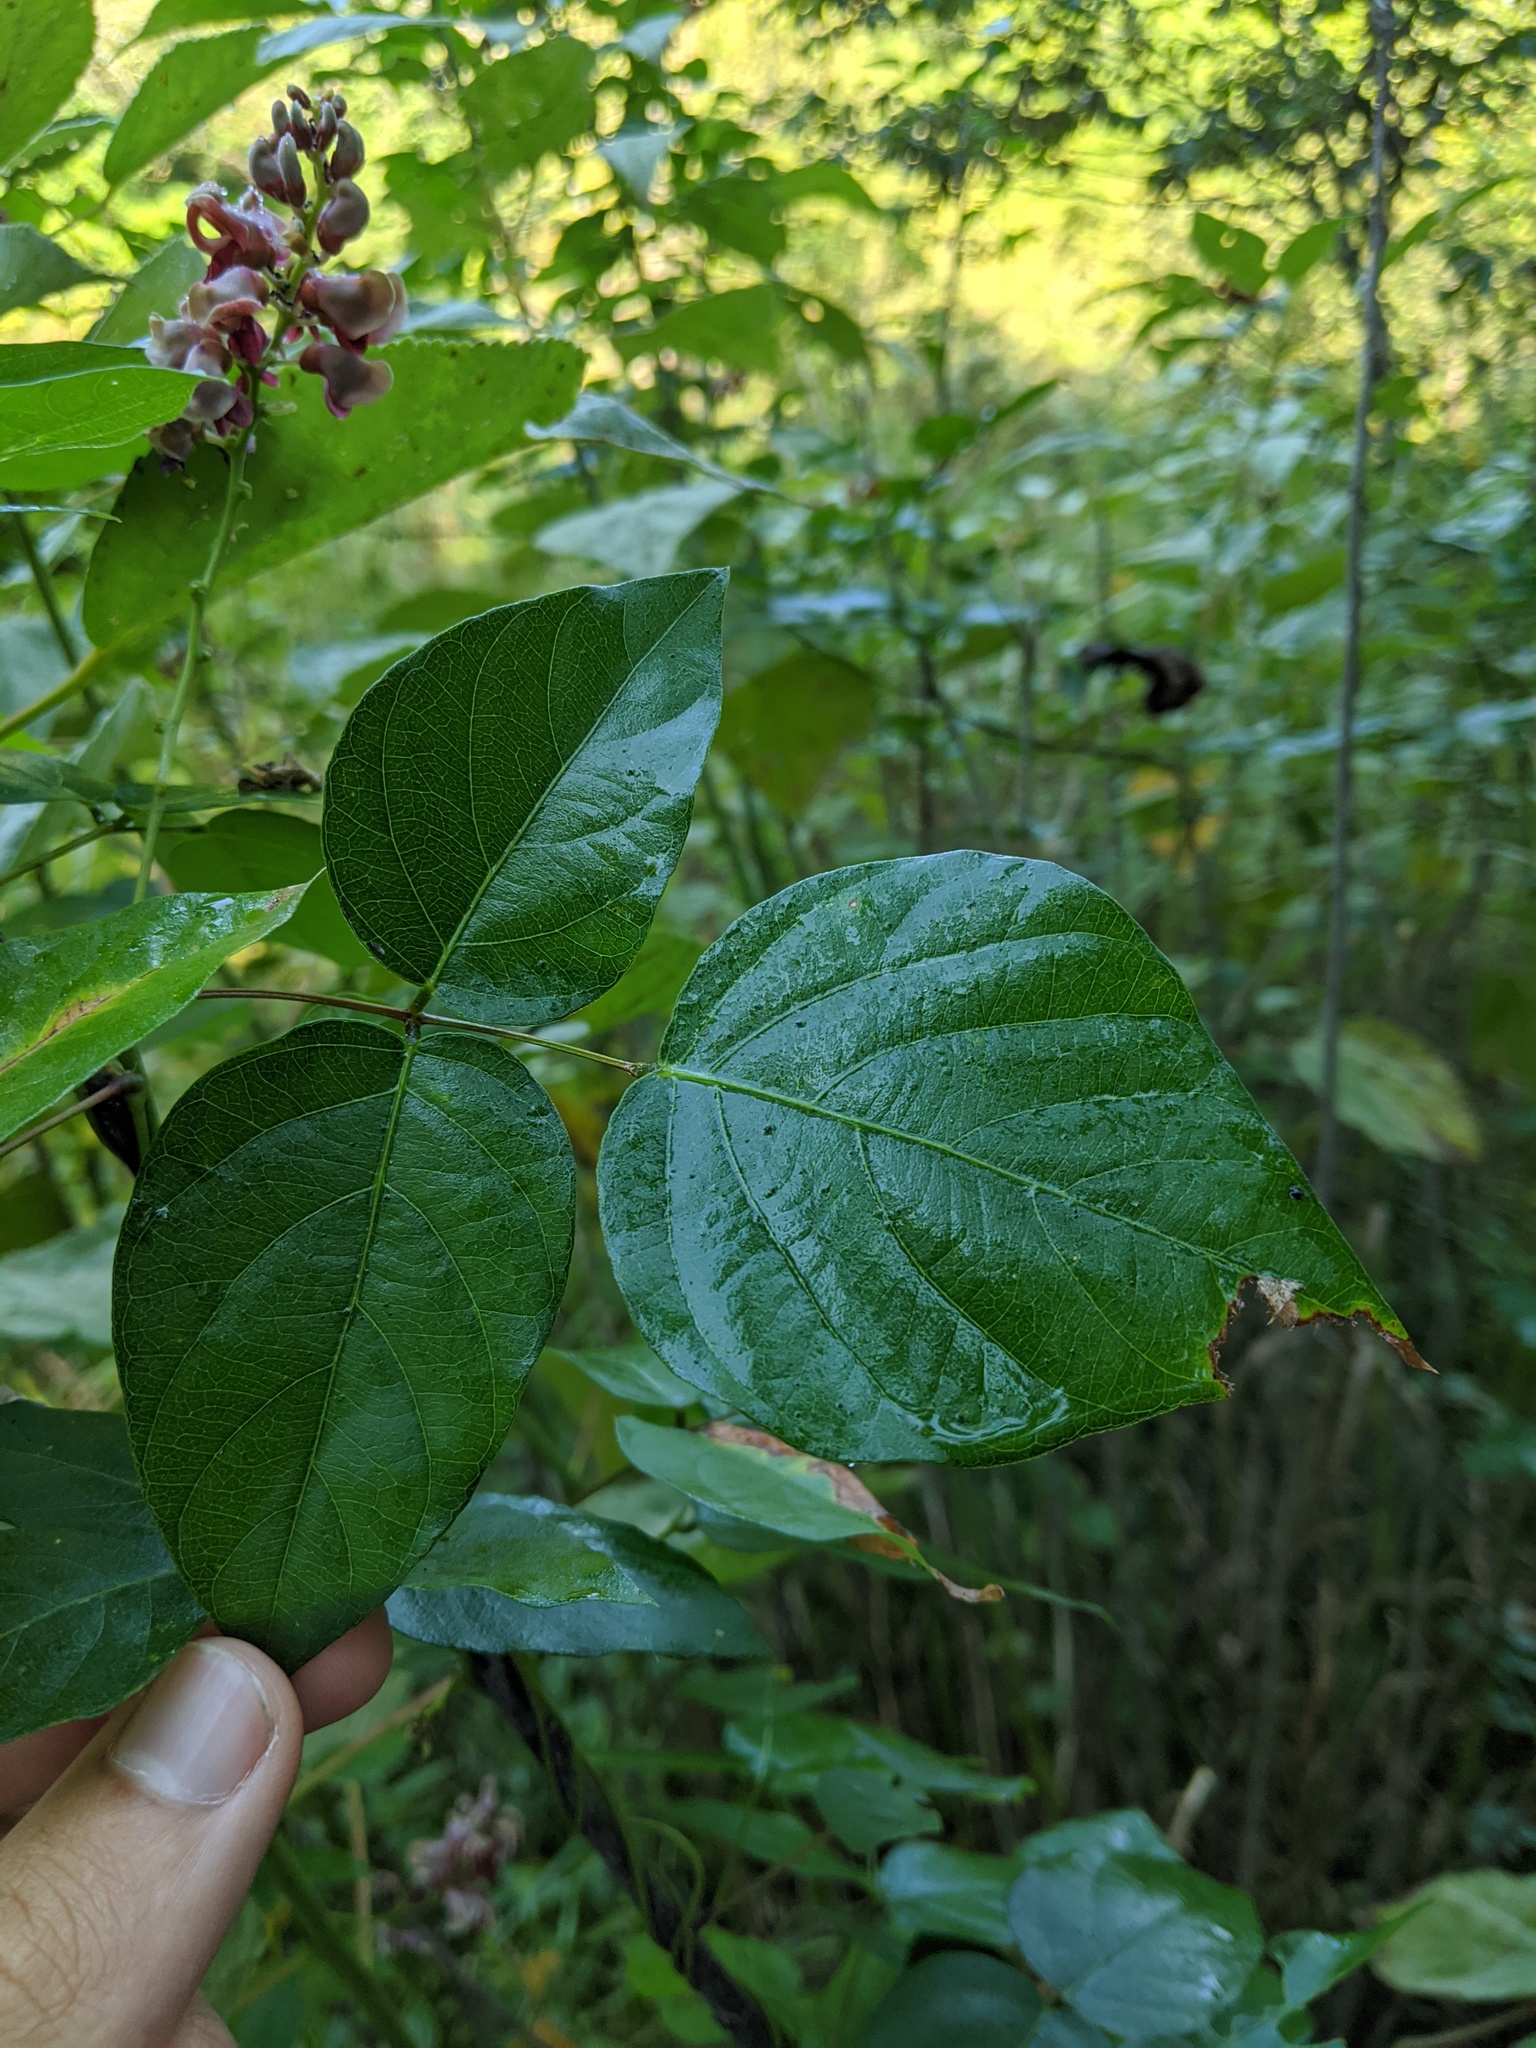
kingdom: Plantae
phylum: Tracheophyta
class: Magnoliopsida
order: Fabales
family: Fabaceae
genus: Apios
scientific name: Apios americana
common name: American potato-bean
